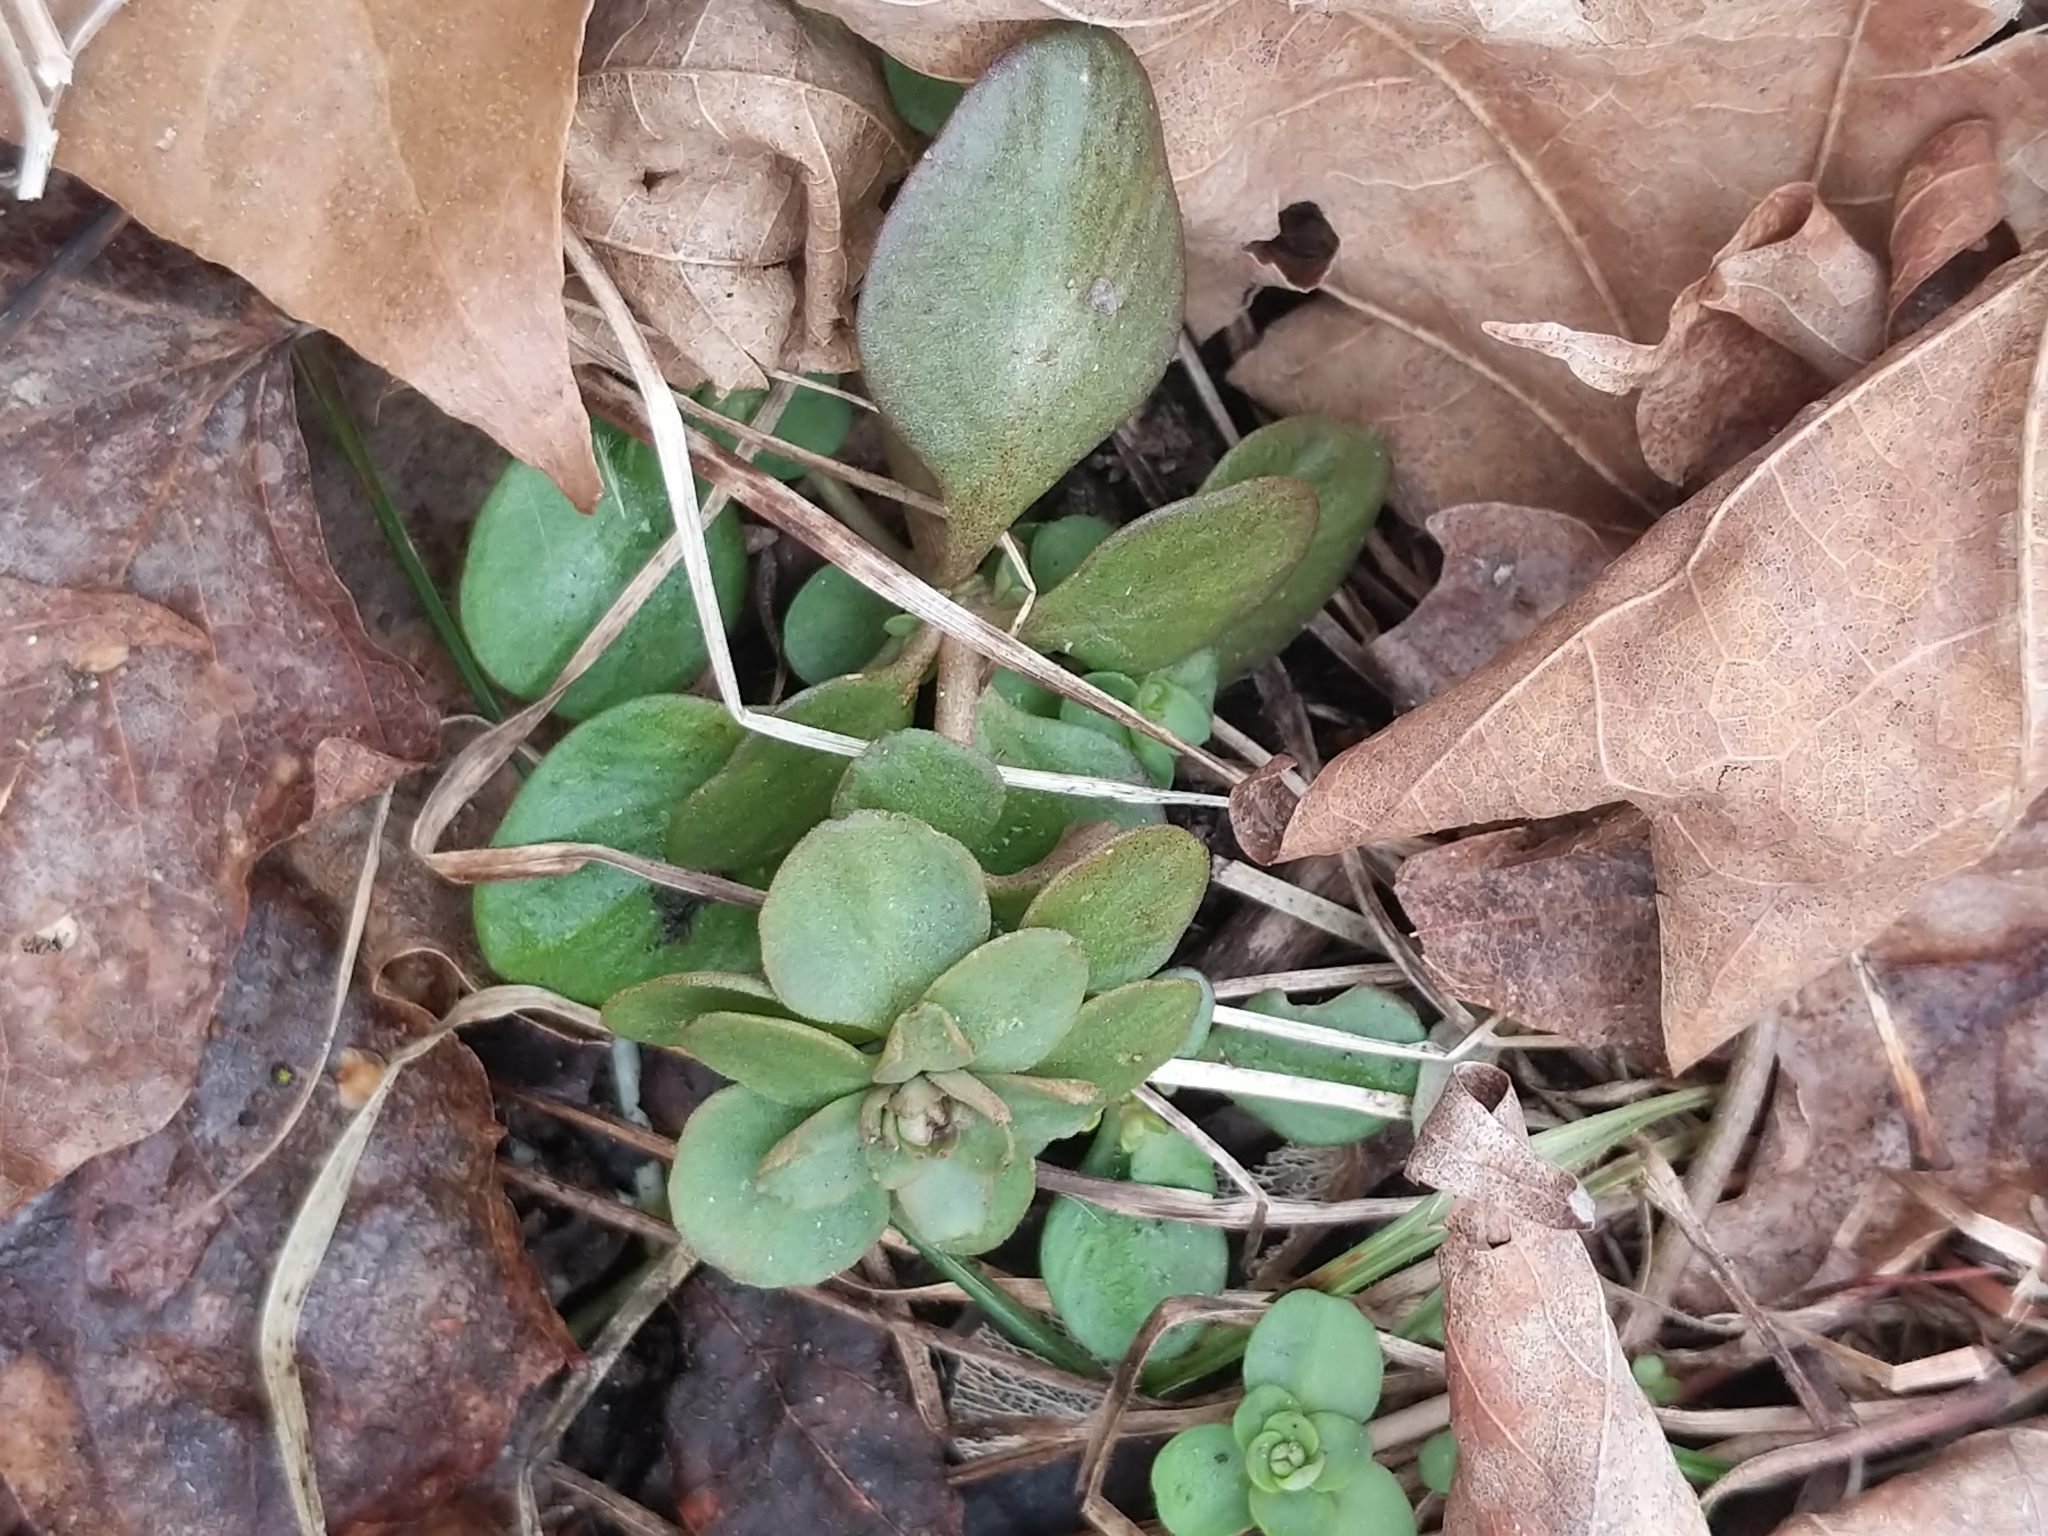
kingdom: Plantae
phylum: Tracheophyta
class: Magnoliopsida
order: Saxifragales
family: Crassulaceae
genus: Sedum
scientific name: Sedum ternatum
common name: Wild stonecrop
